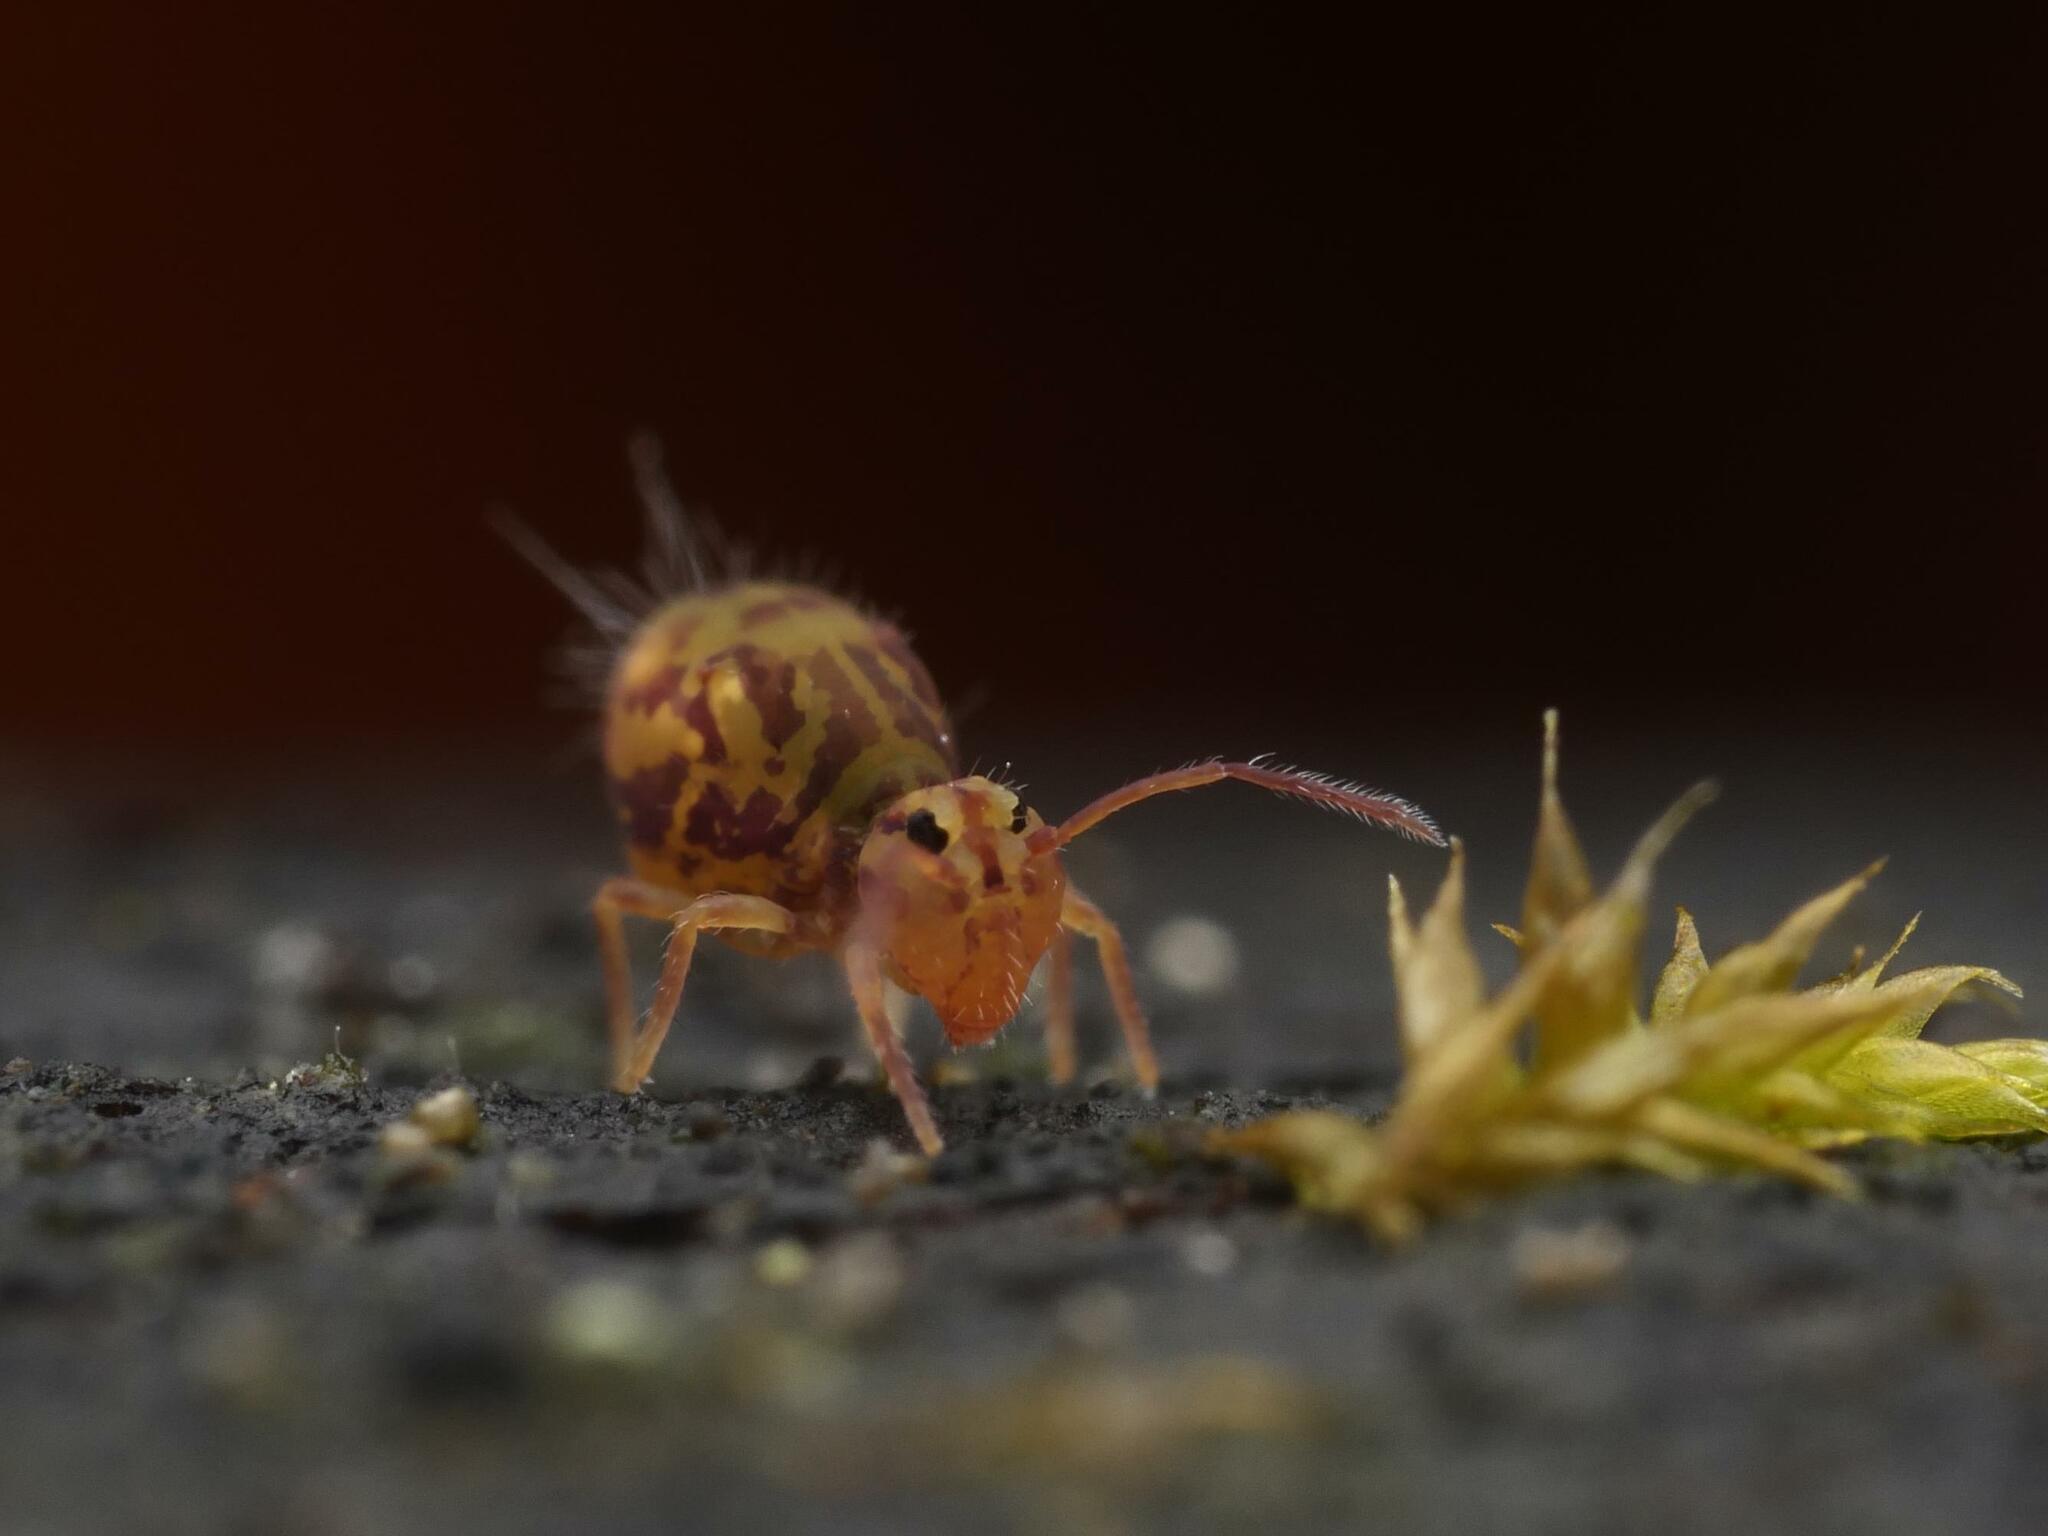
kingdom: Animalia
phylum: Arthropoda
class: Collembola
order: Symphypleona
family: Dicyrtomidae
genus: Dicyrtomina
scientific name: Dicyrtomina ornata
